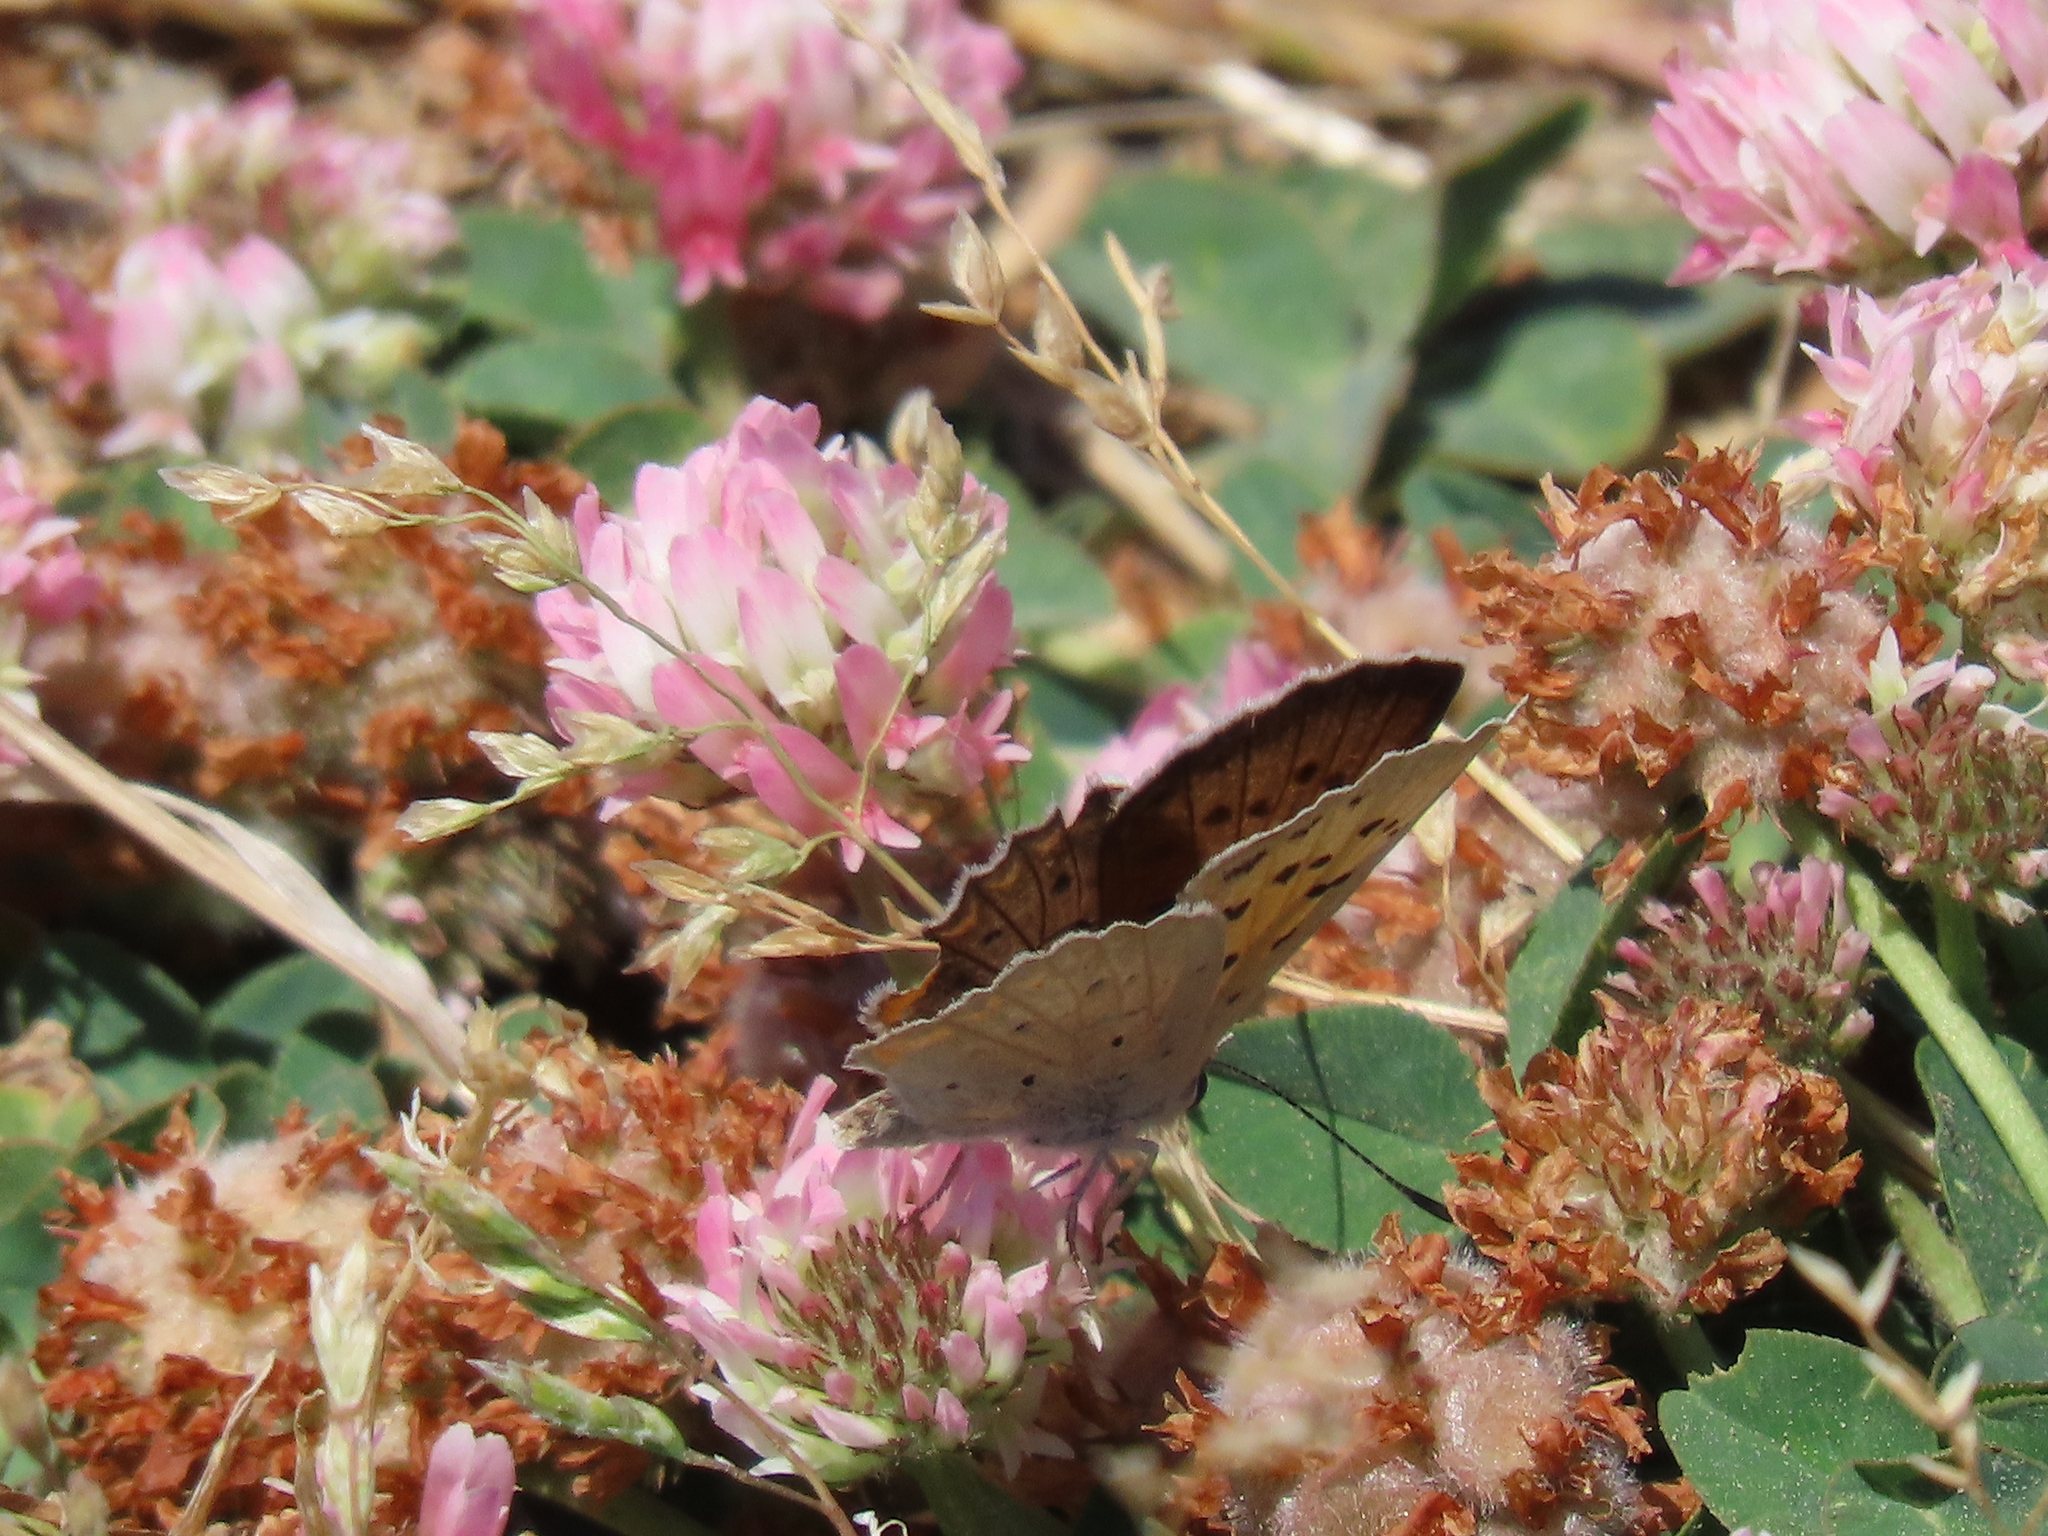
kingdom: Plantae
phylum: Tracheophyta
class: Magnoliopsida
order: Fabales
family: Fabaceae
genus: Trifolium
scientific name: Trifolium tomentosum
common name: Woolly clover
